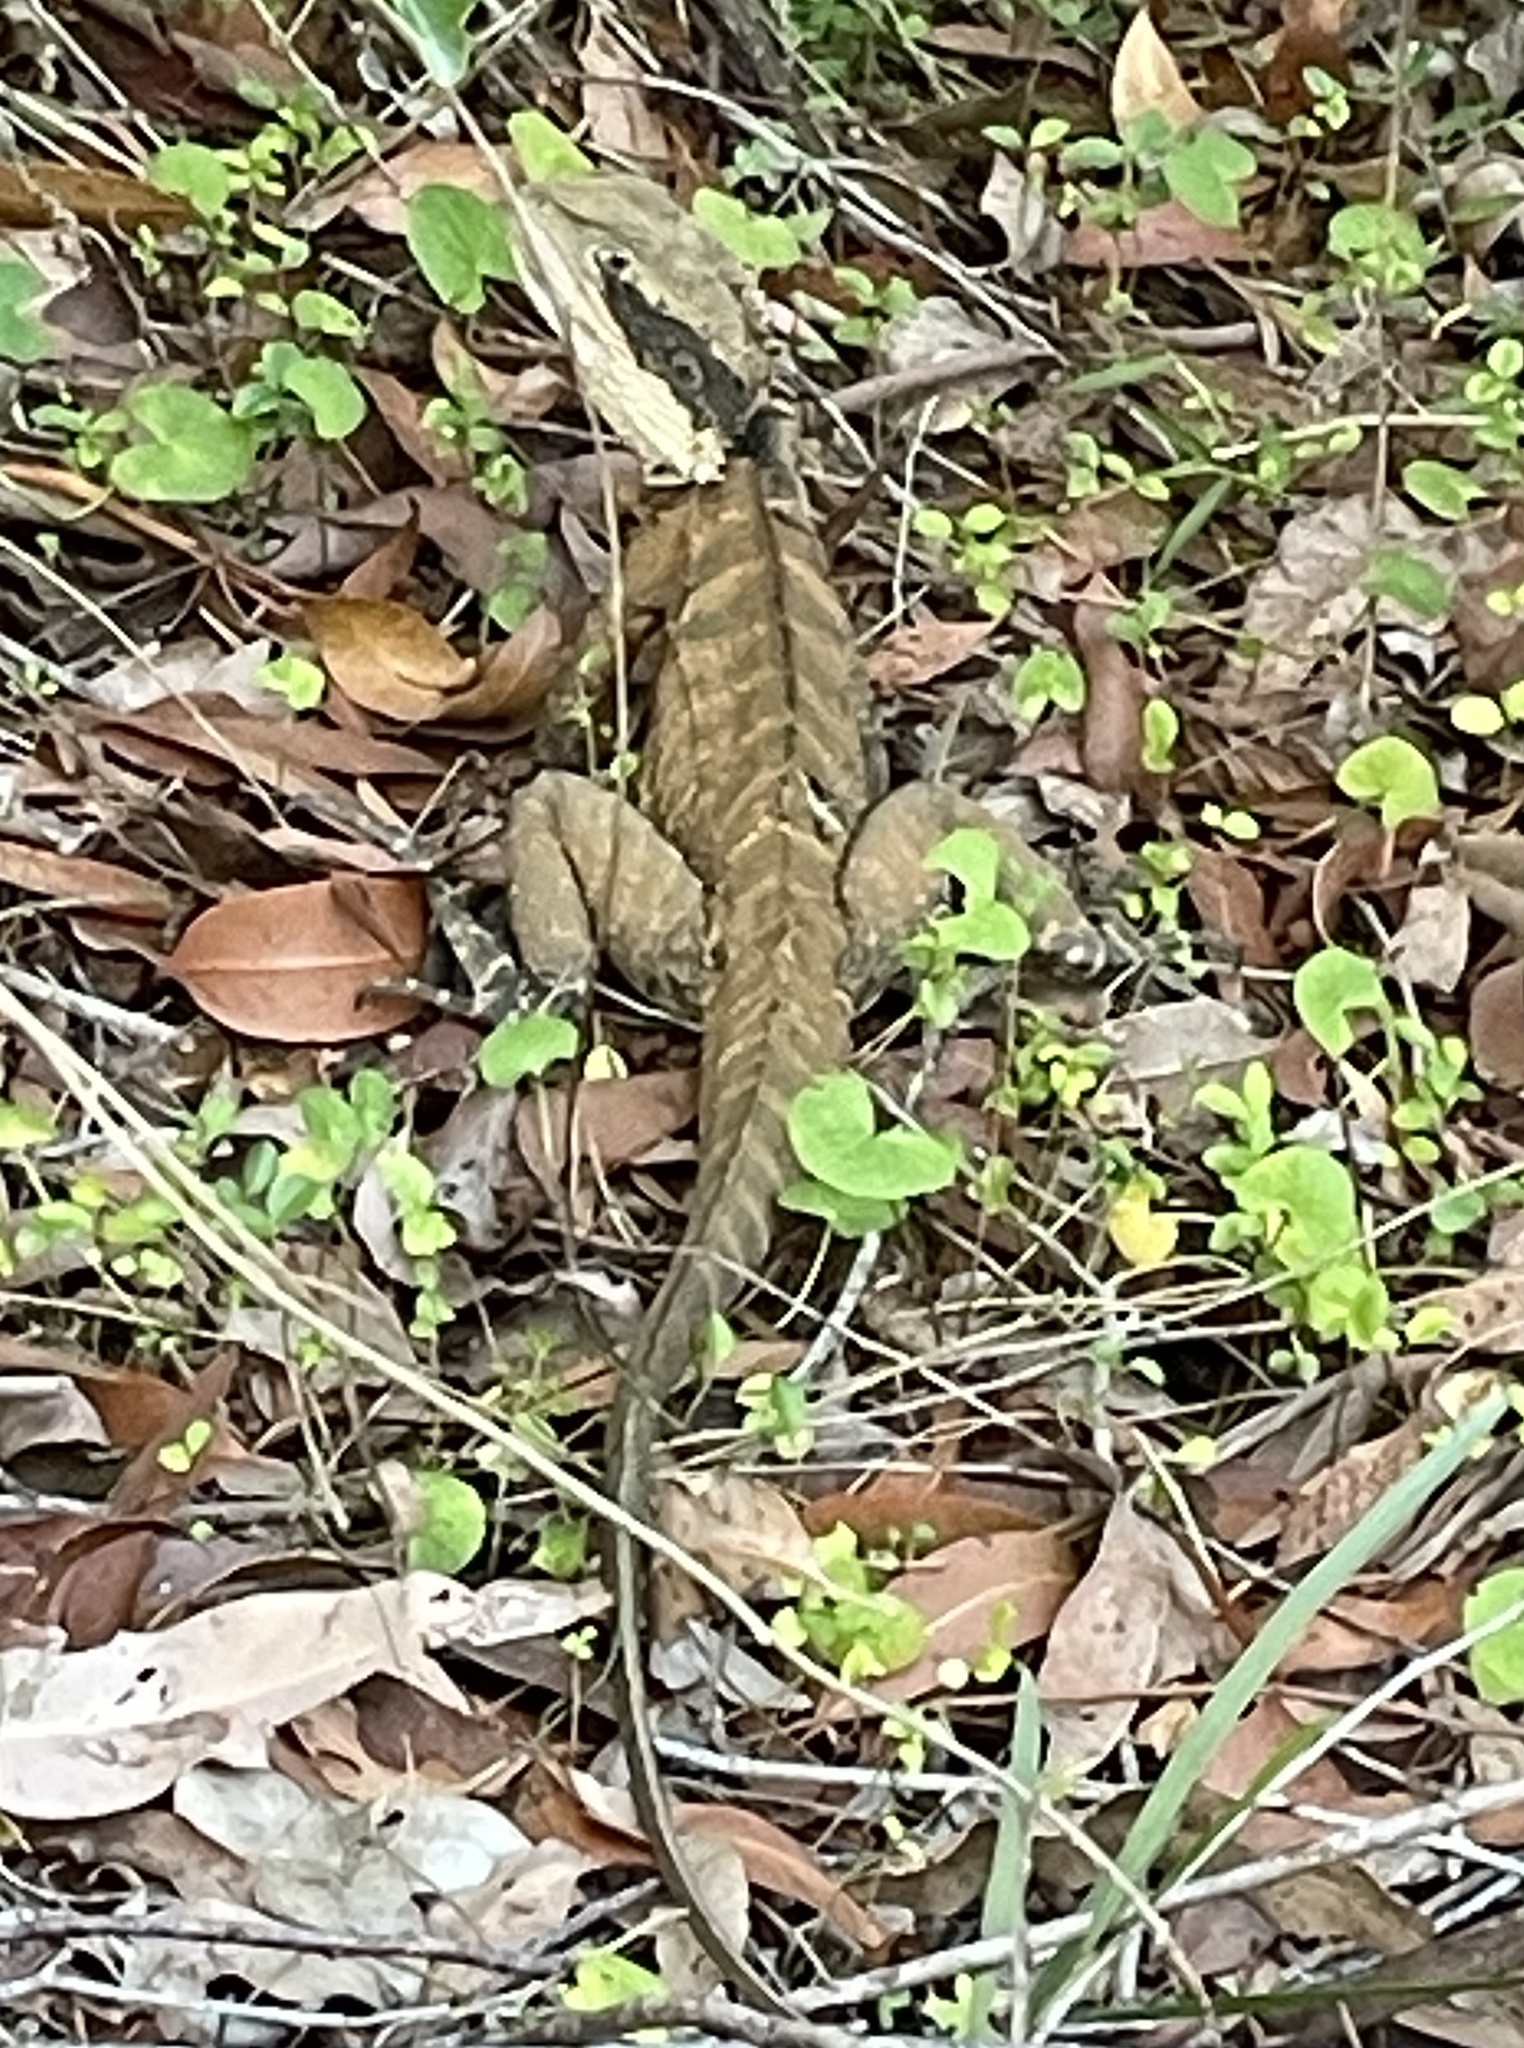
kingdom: Animalia
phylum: Chordata
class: Squamata
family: Agamidae
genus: Intellagama
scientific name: Intellagama lesueurii
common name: Eastern water dragon
